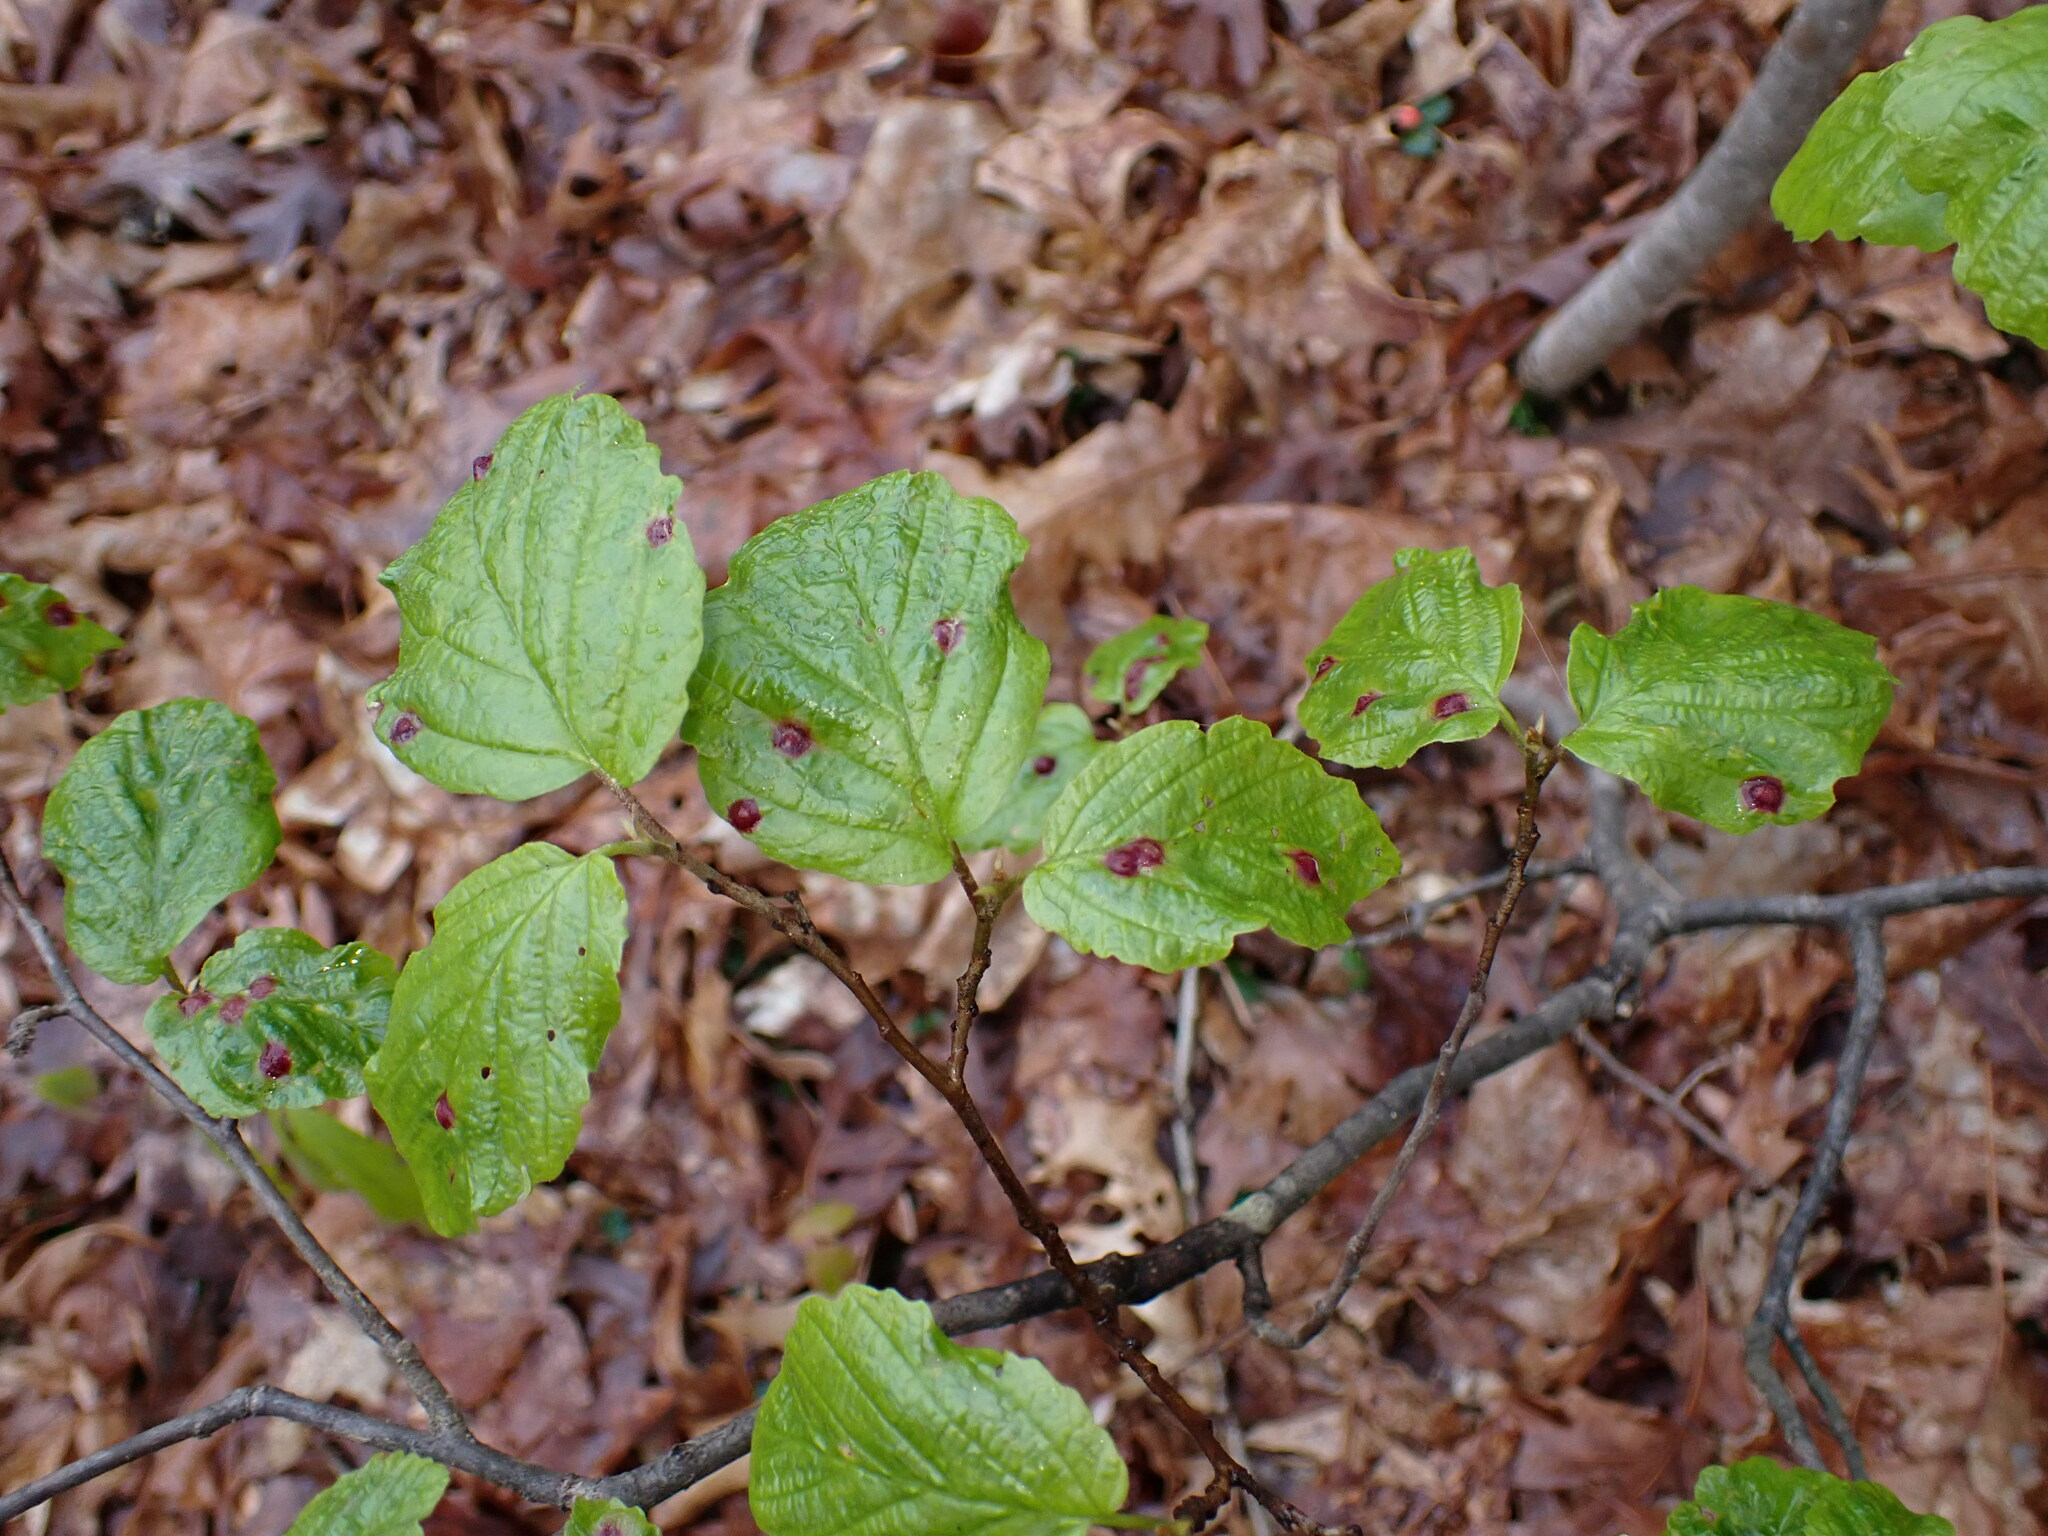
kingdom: Plantae
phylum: Tracheophyta
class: Magnoliopsida
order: Saxifragales
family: Hamamelidaceae
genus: Hamamelis
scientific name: Hamamelis virginiana
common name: Witch-hazel
